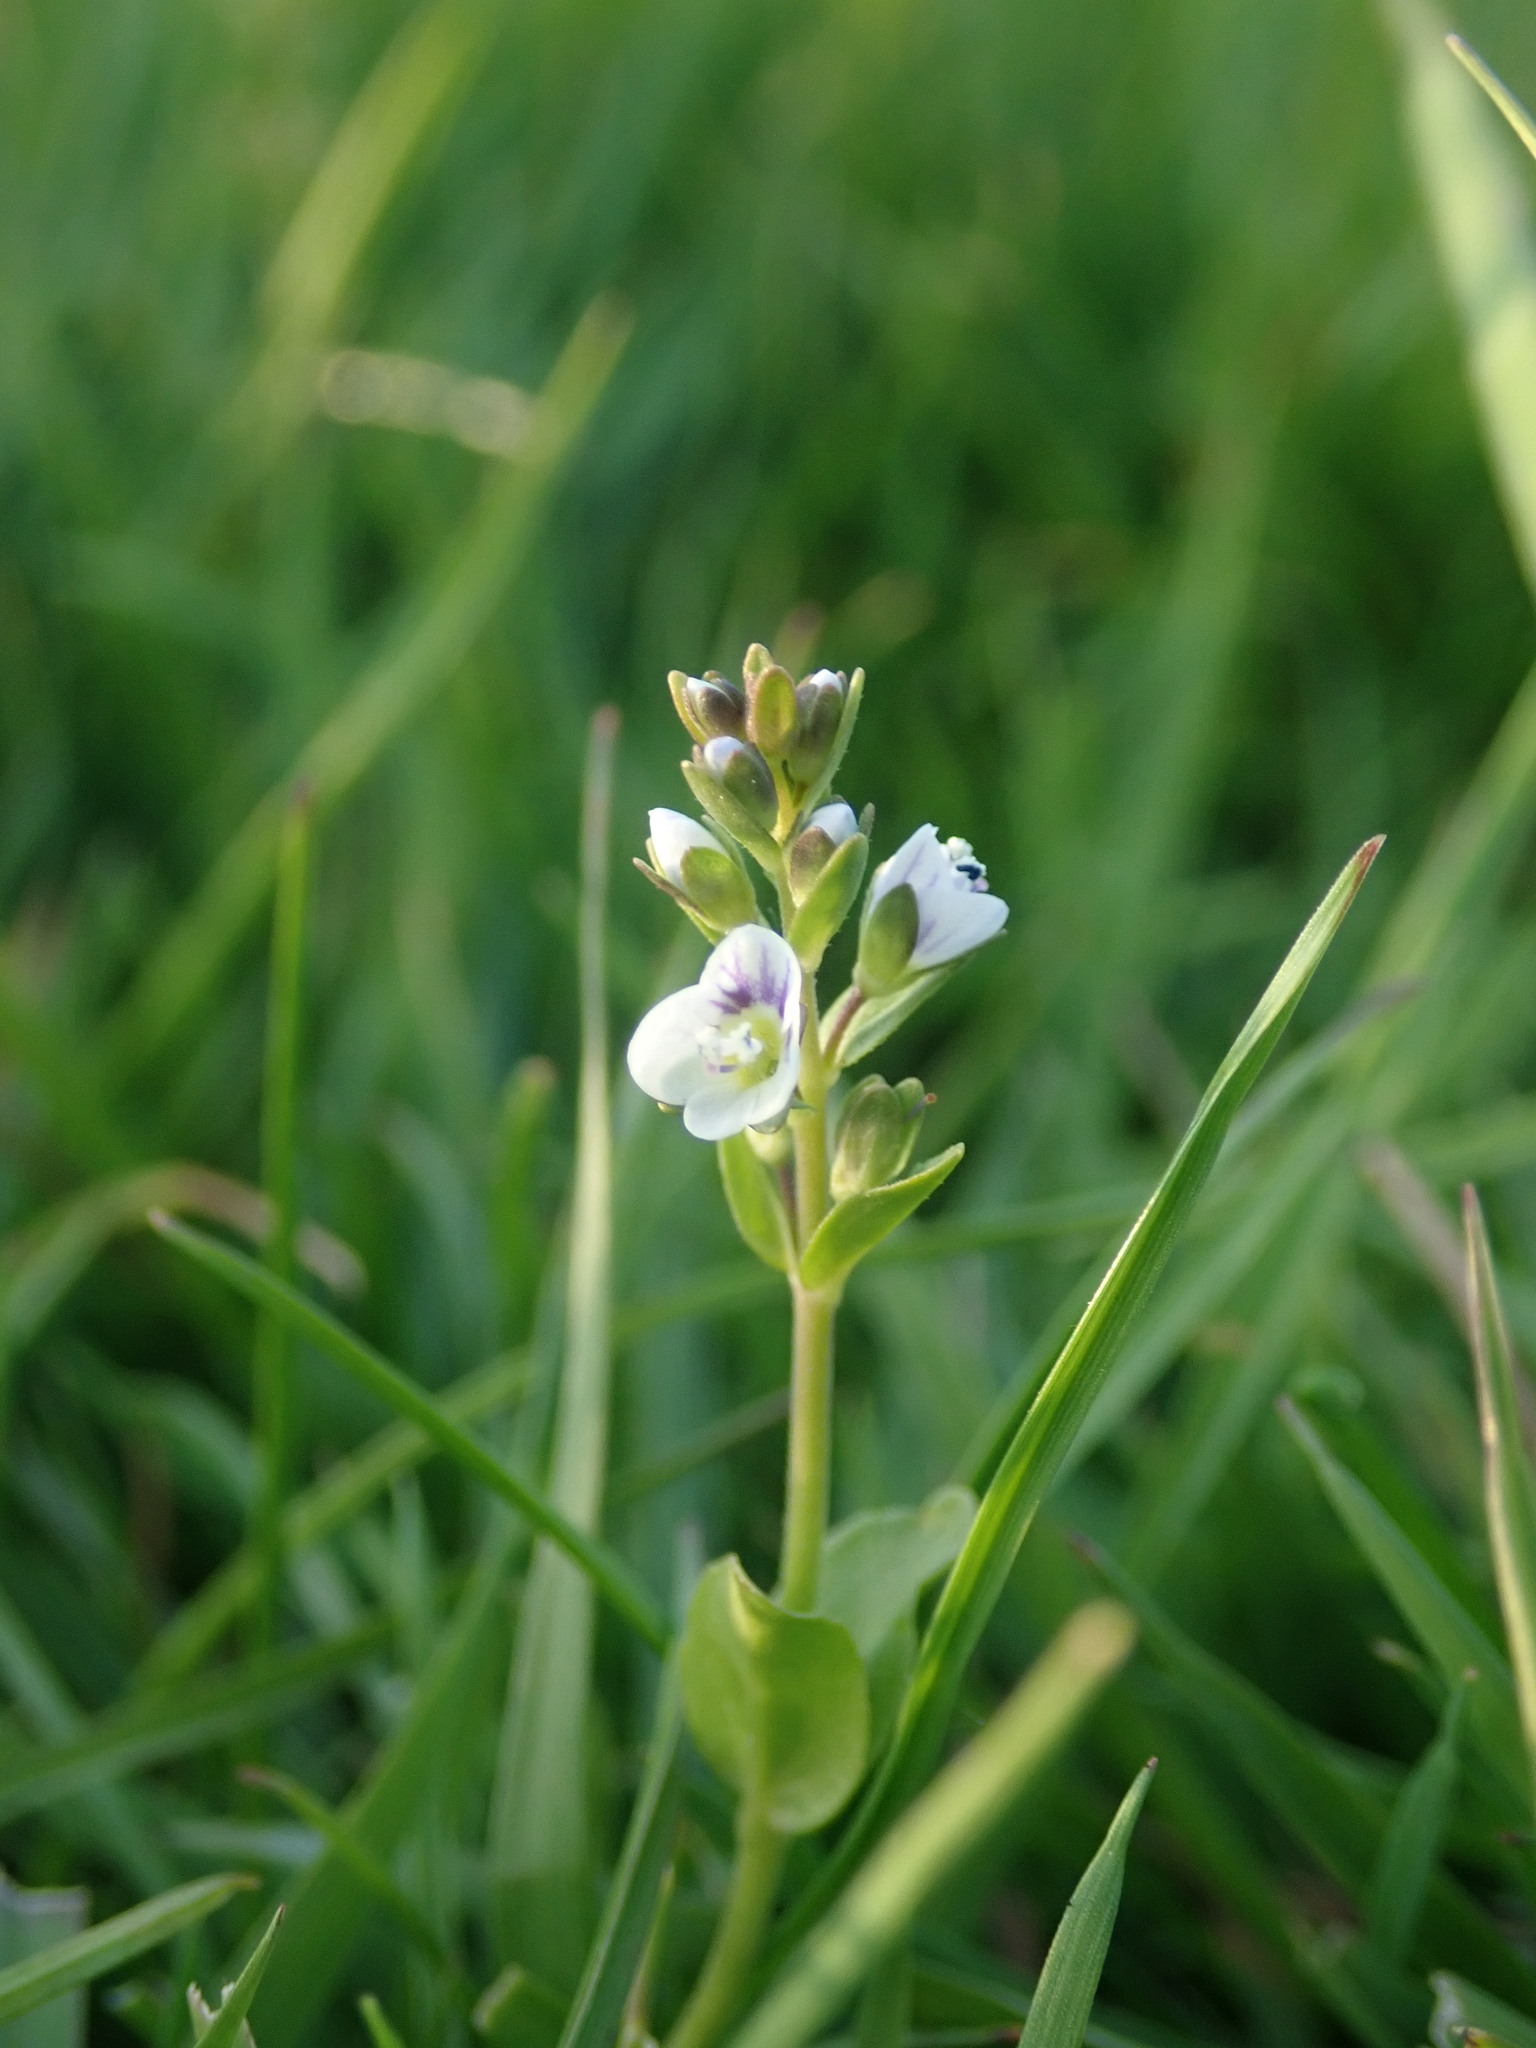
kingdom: Plantae
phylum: Tracheophyta
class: Magnoliopsida
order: Lamiales
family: Plantaginaceae
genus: Veronica
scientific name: Veronica serpyllifolia
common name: Thyme-leaved speedwell
